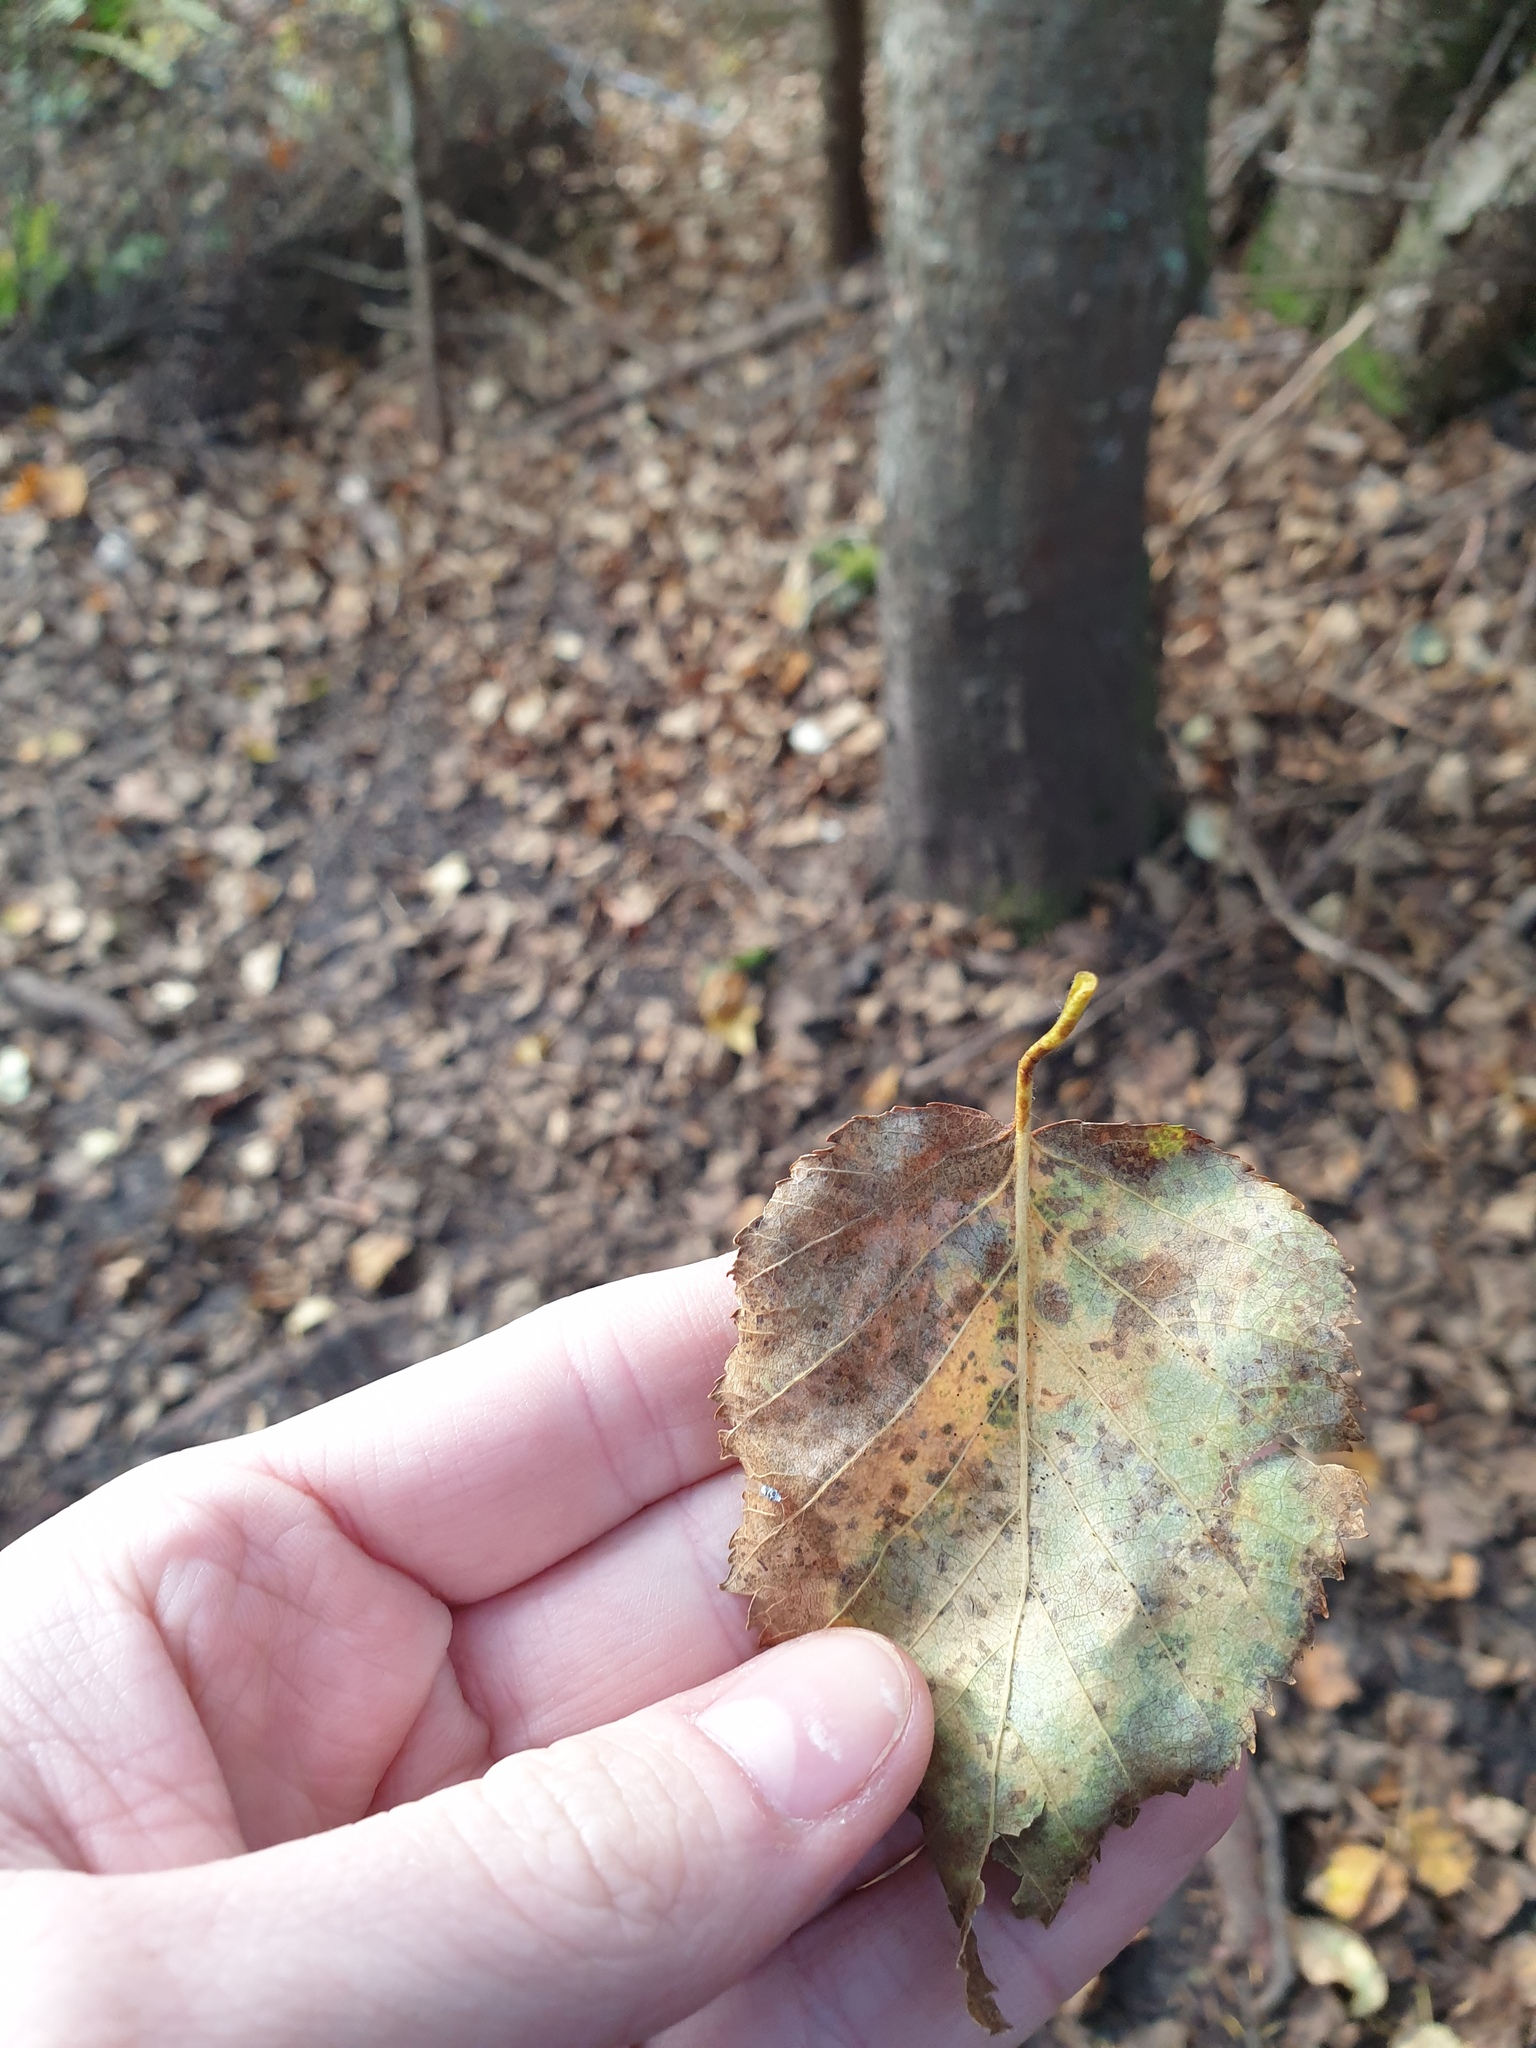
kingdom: Plantae
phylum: Tracheophyta
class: Magnoliopsida
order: Fagales
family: Betulaceae
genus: Betula
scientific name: Betula cordifolia
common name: Mountain white birch
